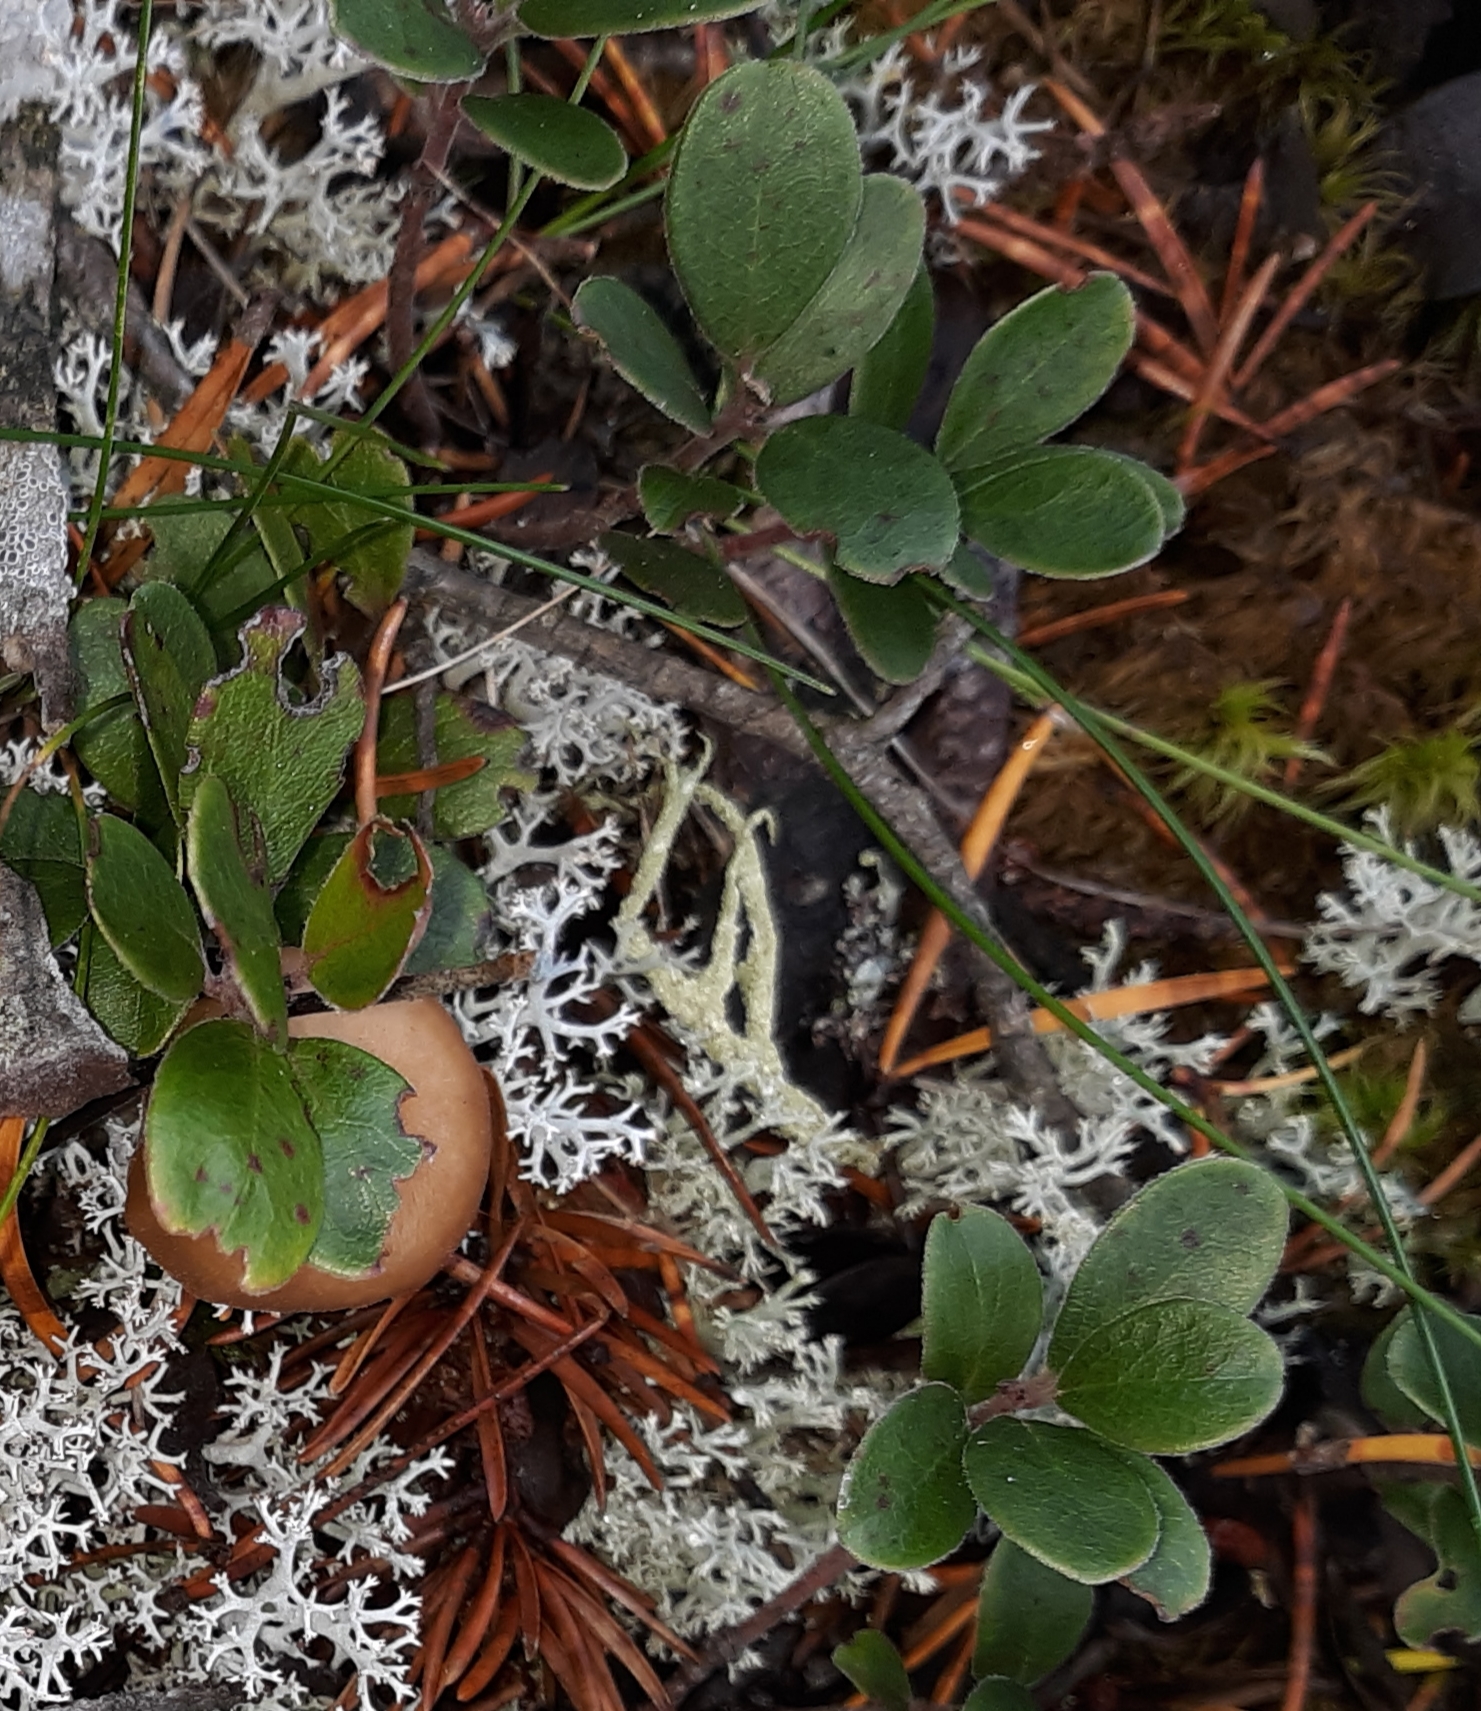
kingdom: Plantae
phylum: Tracheophyta
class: Magnoliopsida
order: Ericales
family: Ericaceae
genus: Arctostaphylos
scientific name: Arctostaphylos uva-ursi
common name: Bearberry
